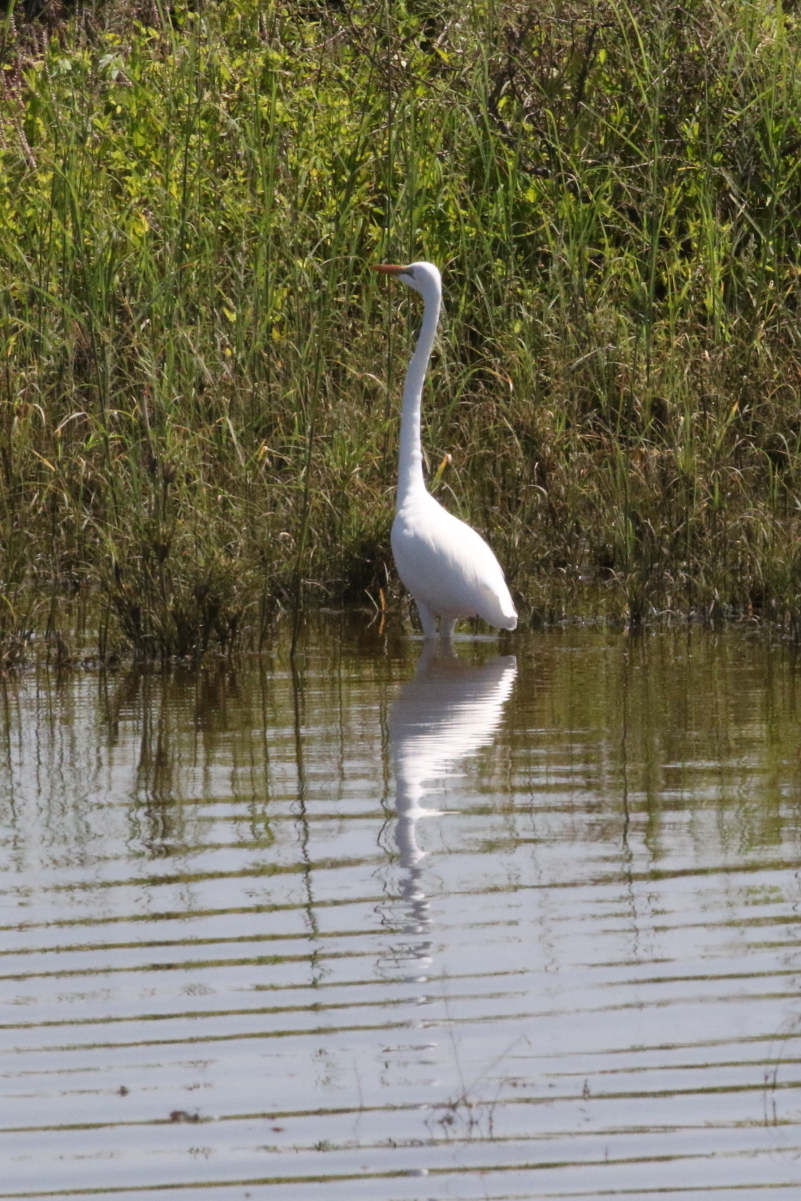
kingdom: Animalia
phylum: Chordata
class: Aves
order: Pelecaniformes
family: Ardeidae
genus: Ardea
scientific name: Ardea alba
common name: Great egret
